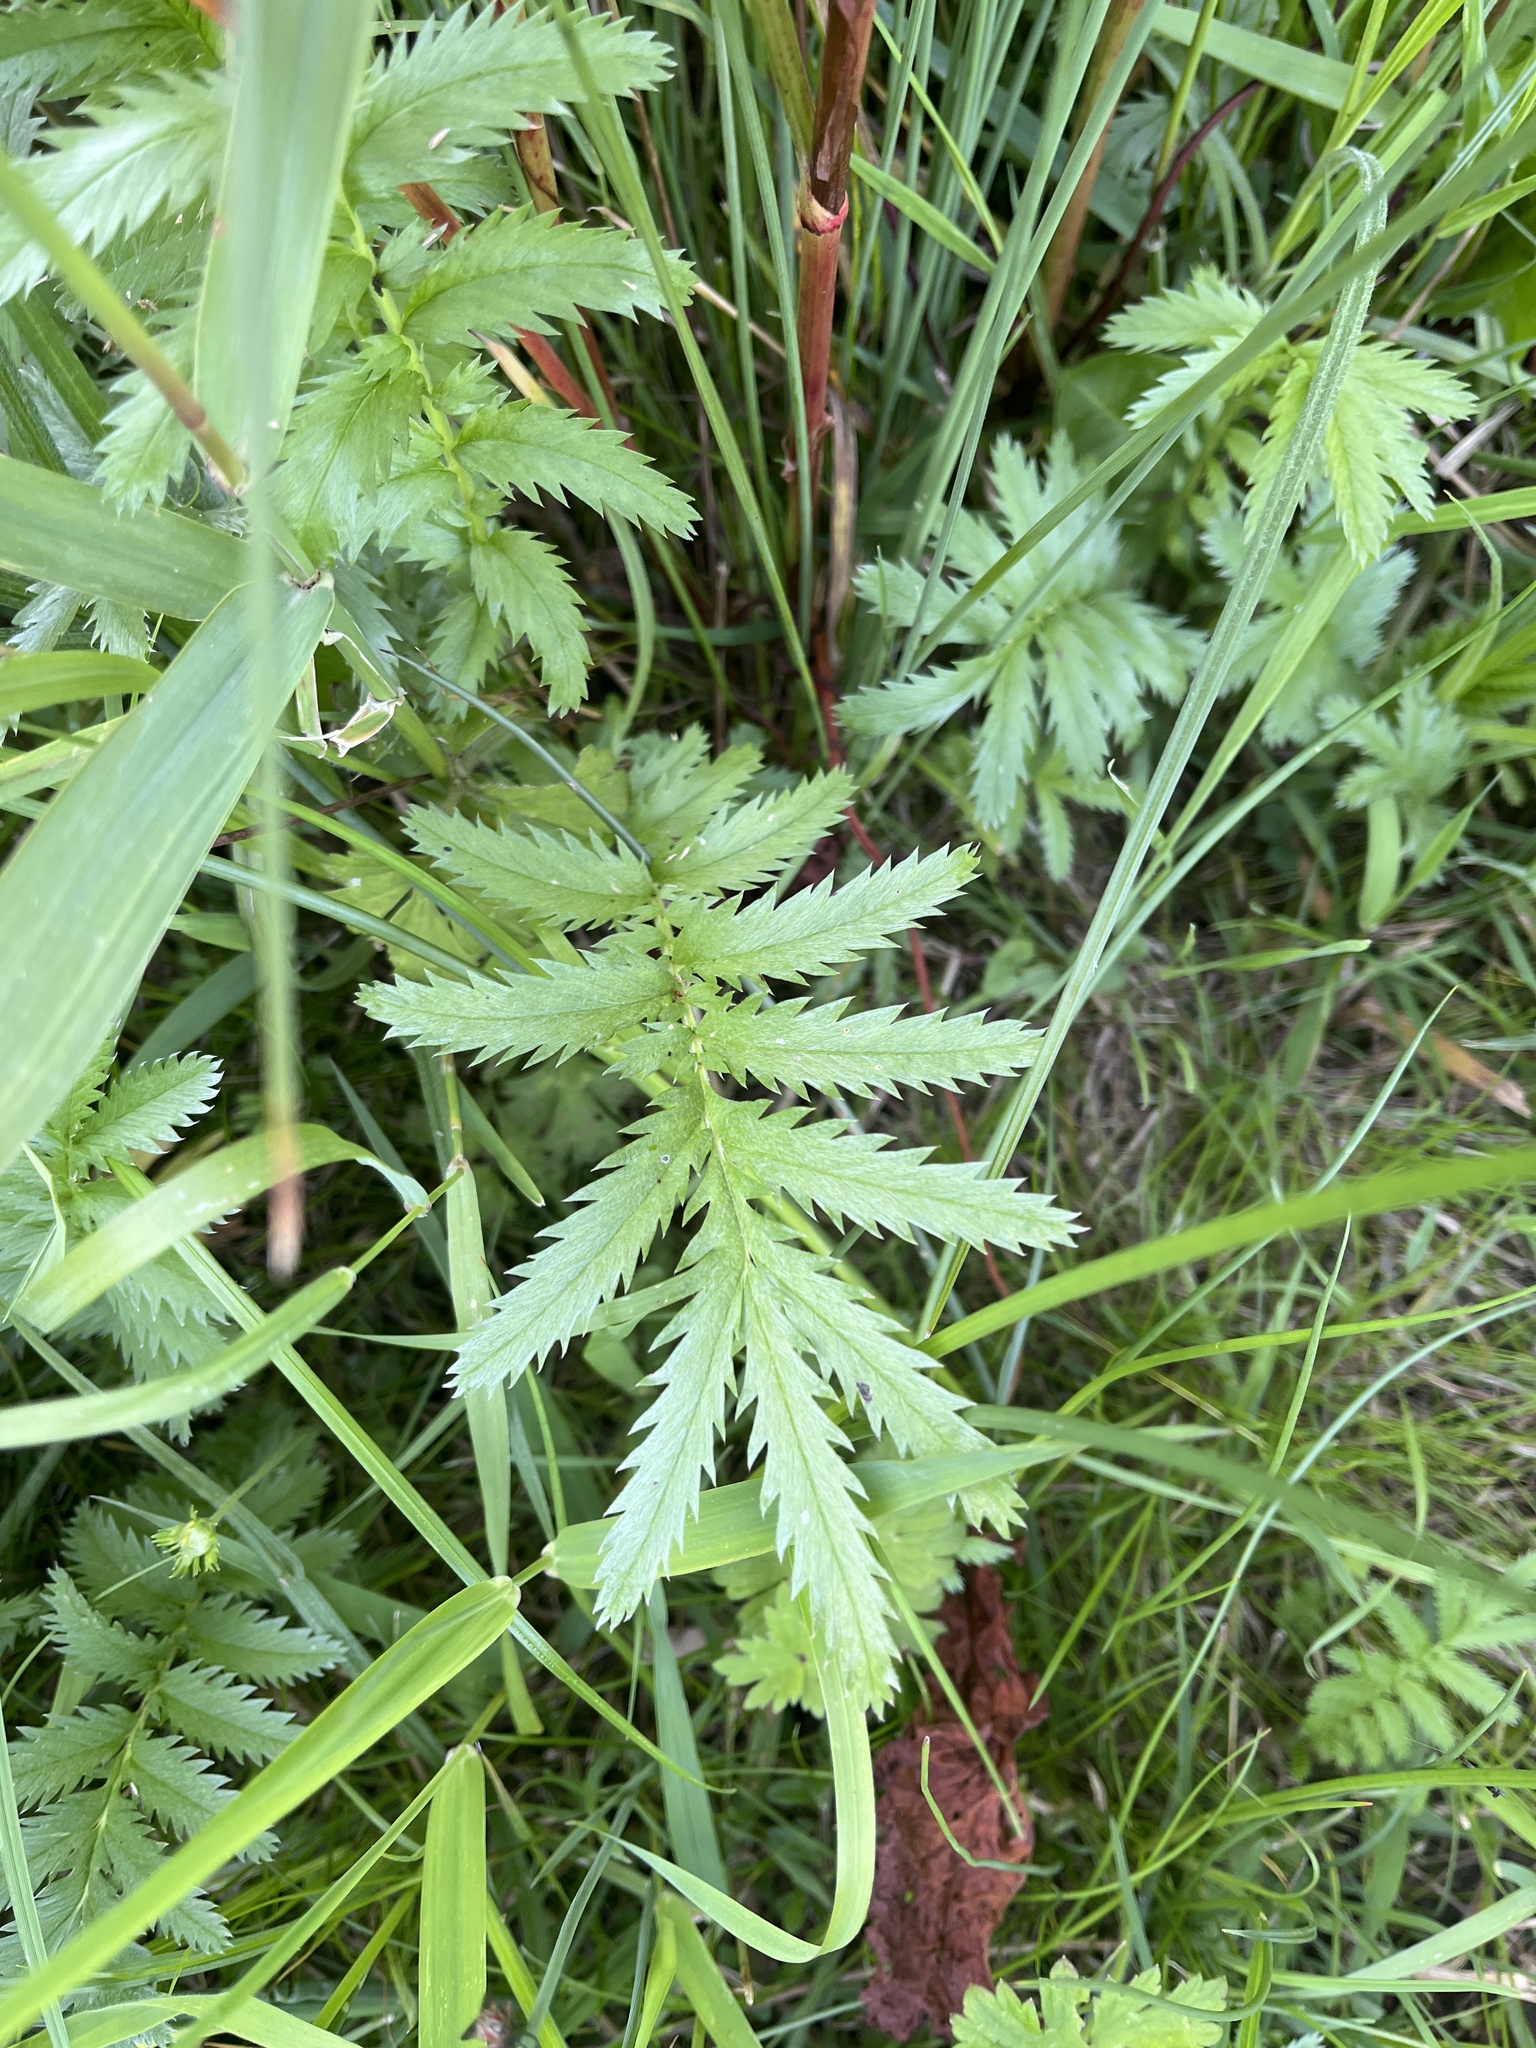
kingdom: Plantae
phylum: Tracheophyta
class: Magnoliopsida
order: Rosales
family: Rosaceae
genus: Argentina
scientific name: Argentina anserina
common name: Common silverweed
